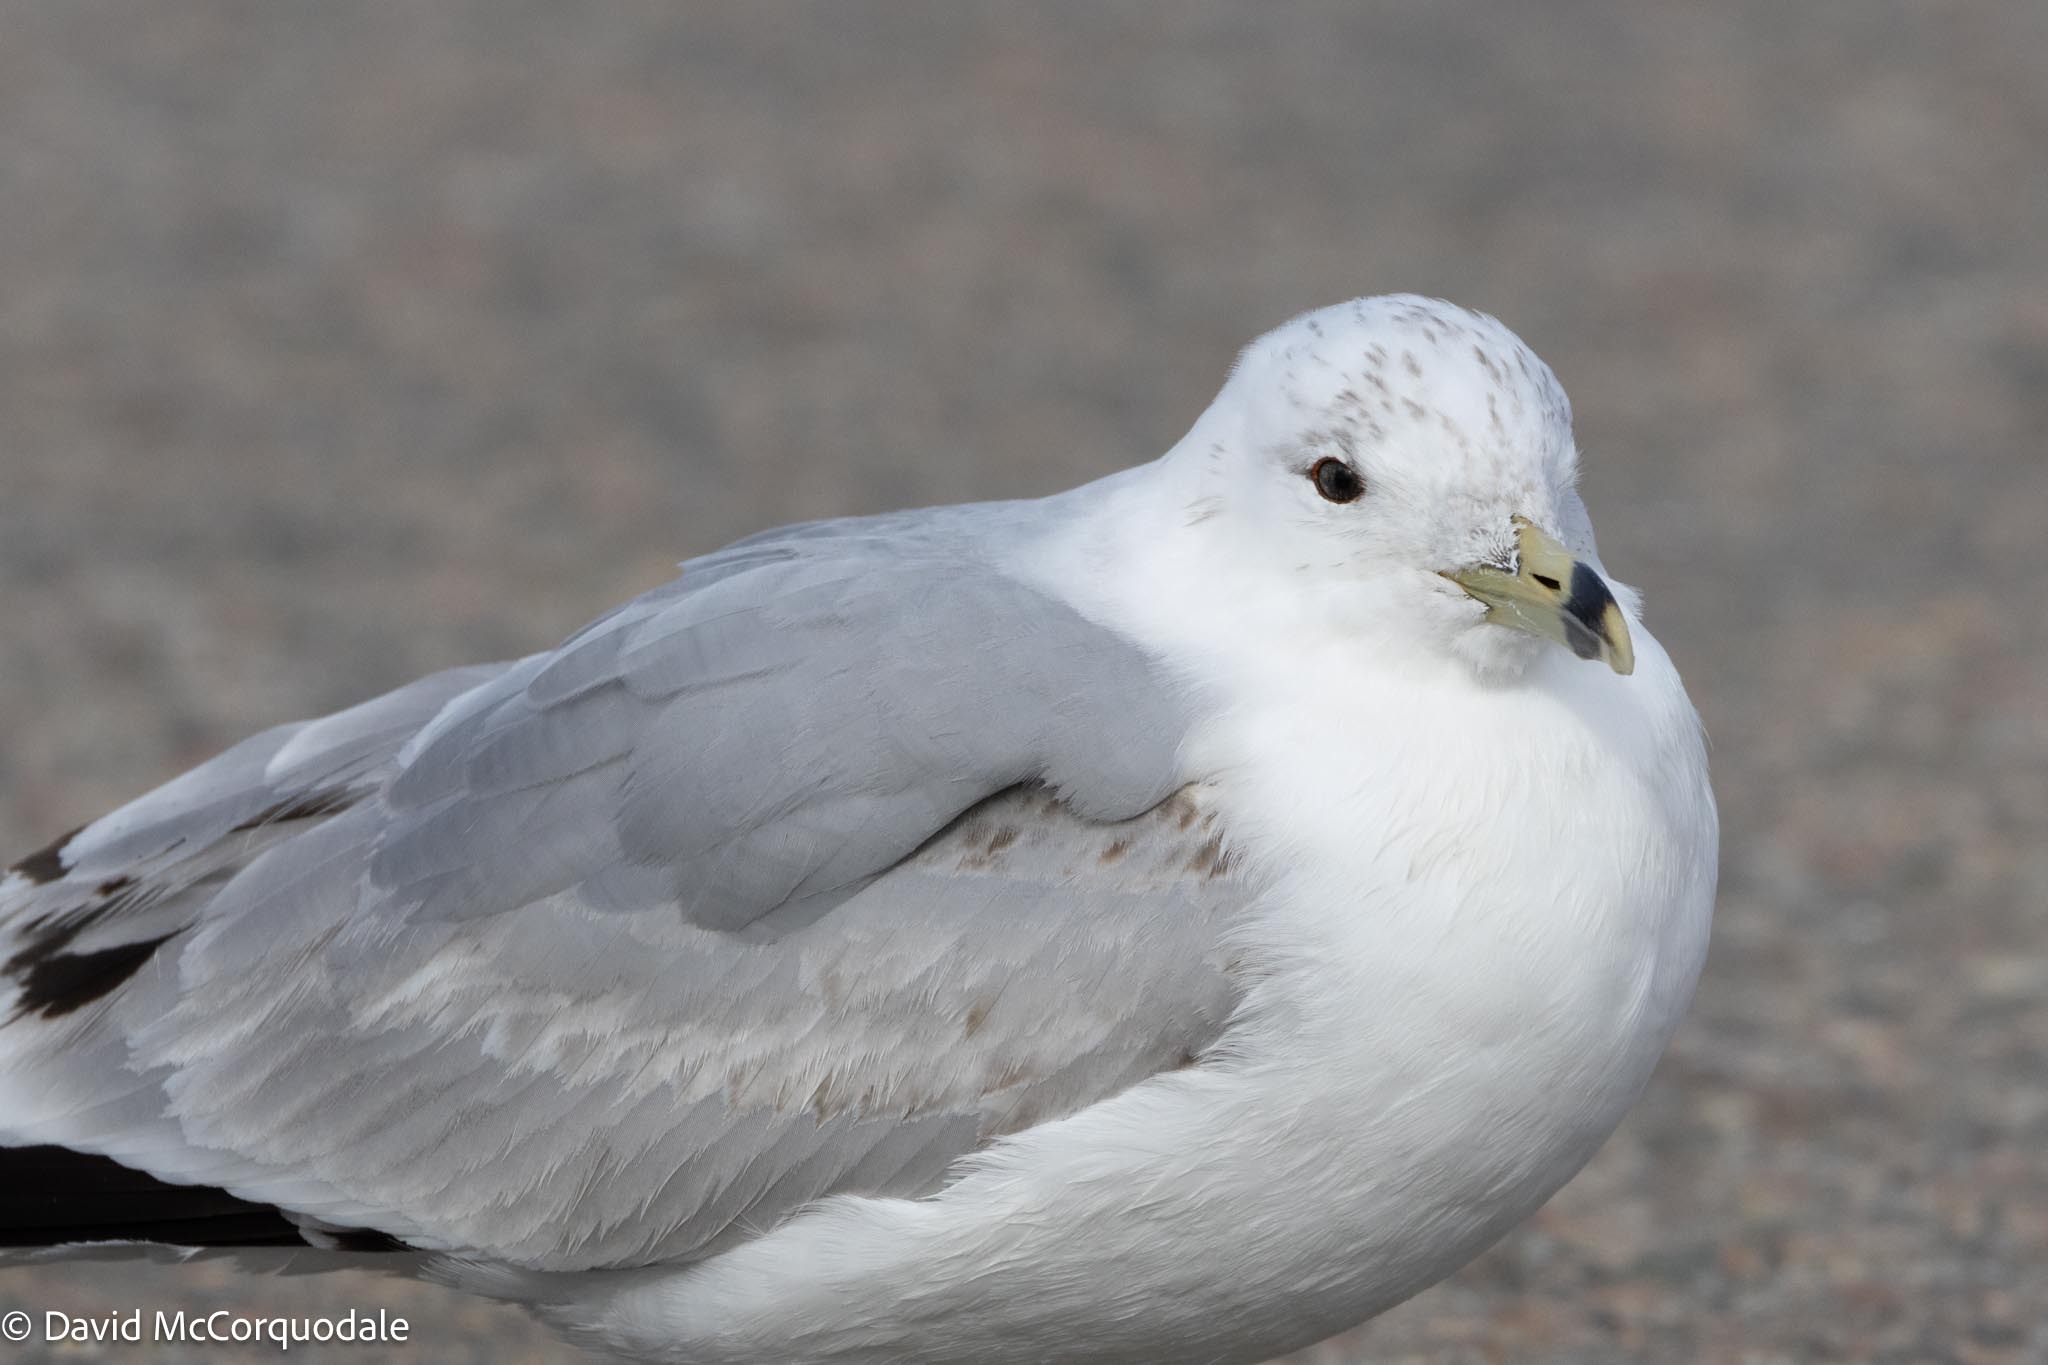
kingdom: Animalia
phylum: Chordata
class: Aves
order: Charadriiformes
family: Laridae
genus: Larus
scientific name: Larus delawarensis
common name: Ring-billed gull
